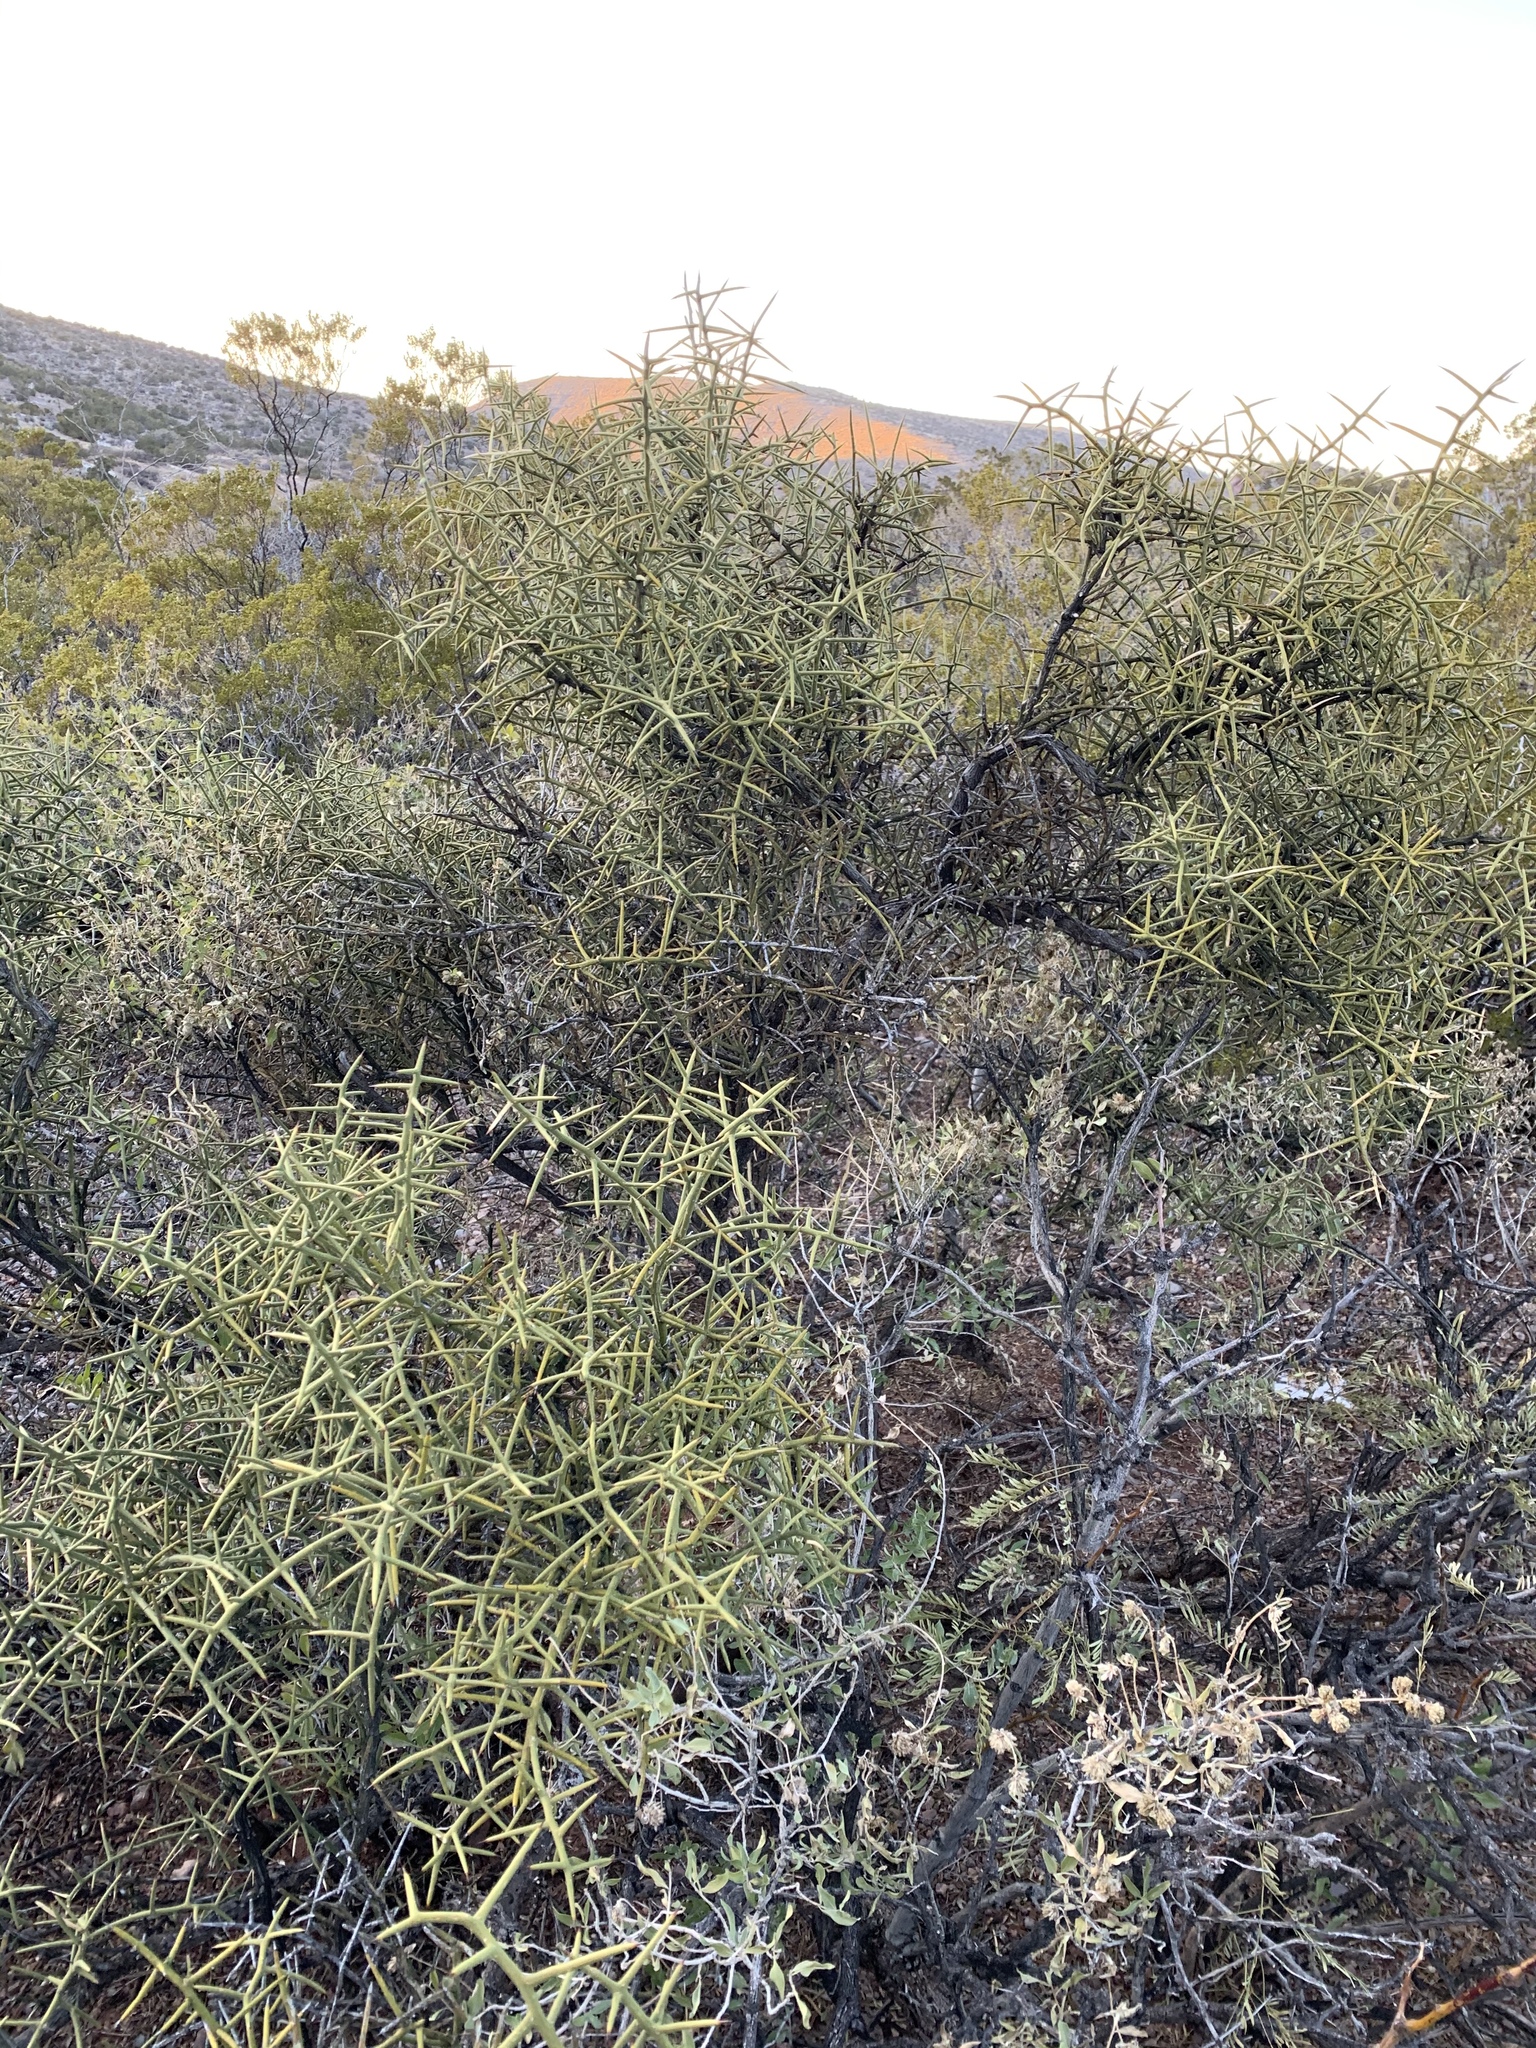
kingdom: Plantae
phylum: Tracheophyta
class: Magnoliopsida
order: Brassicales
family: Koeberliniaceae
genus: Koeberlinia
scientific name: Koeberlinia spinosa
